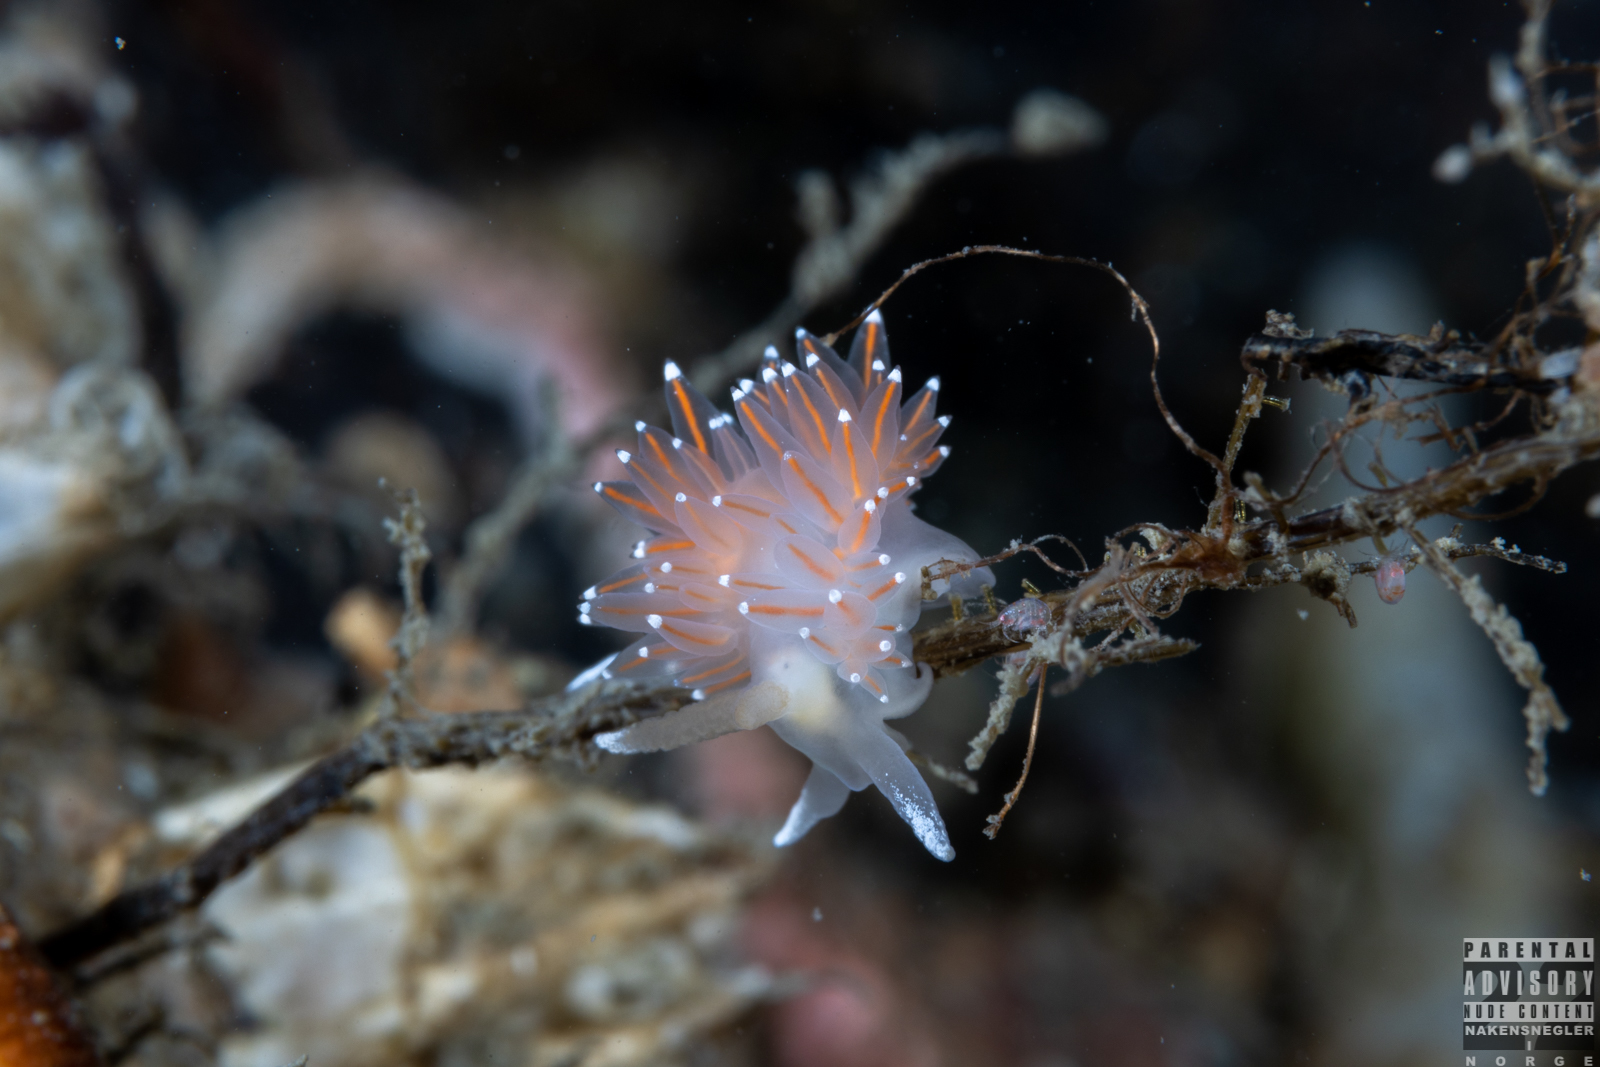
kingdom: Animalia
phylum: Mollusca
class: Gastropoda
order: Nudibranchia
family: Coryphellidae
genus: Coryphella
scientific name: Coryphella nobilis
